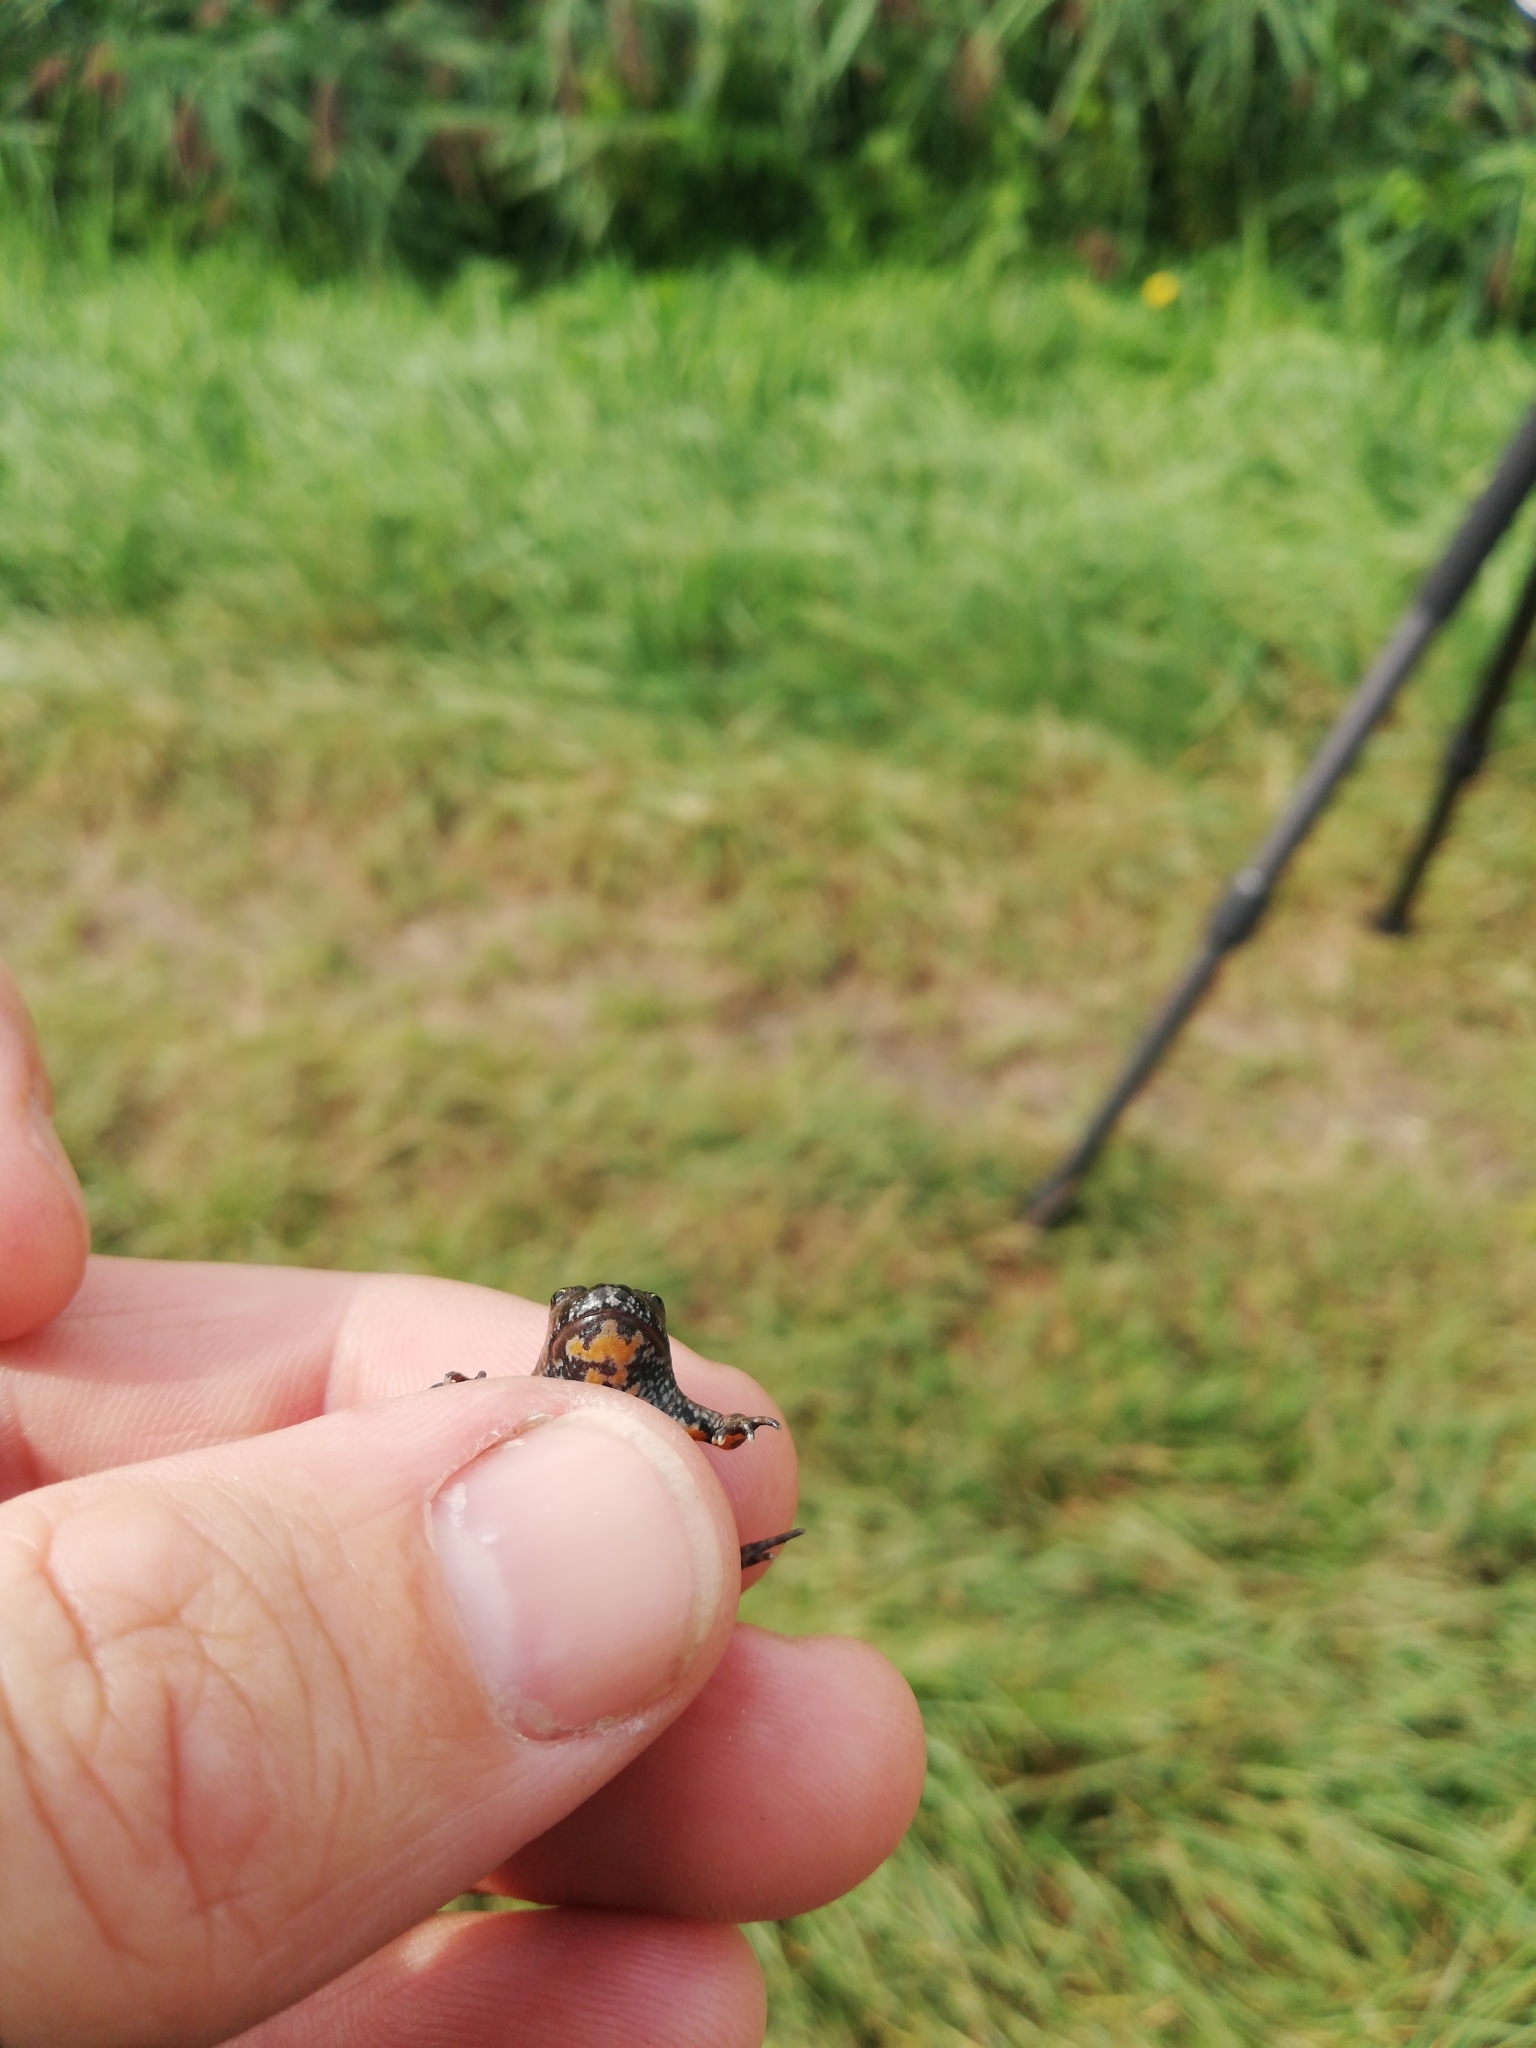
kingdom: Animalia
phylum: Chordata
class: Amphibia
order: Anura
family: Bombinatoridae
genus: Bombina
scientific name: Bombina bombina
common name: Fire-bellied toad
